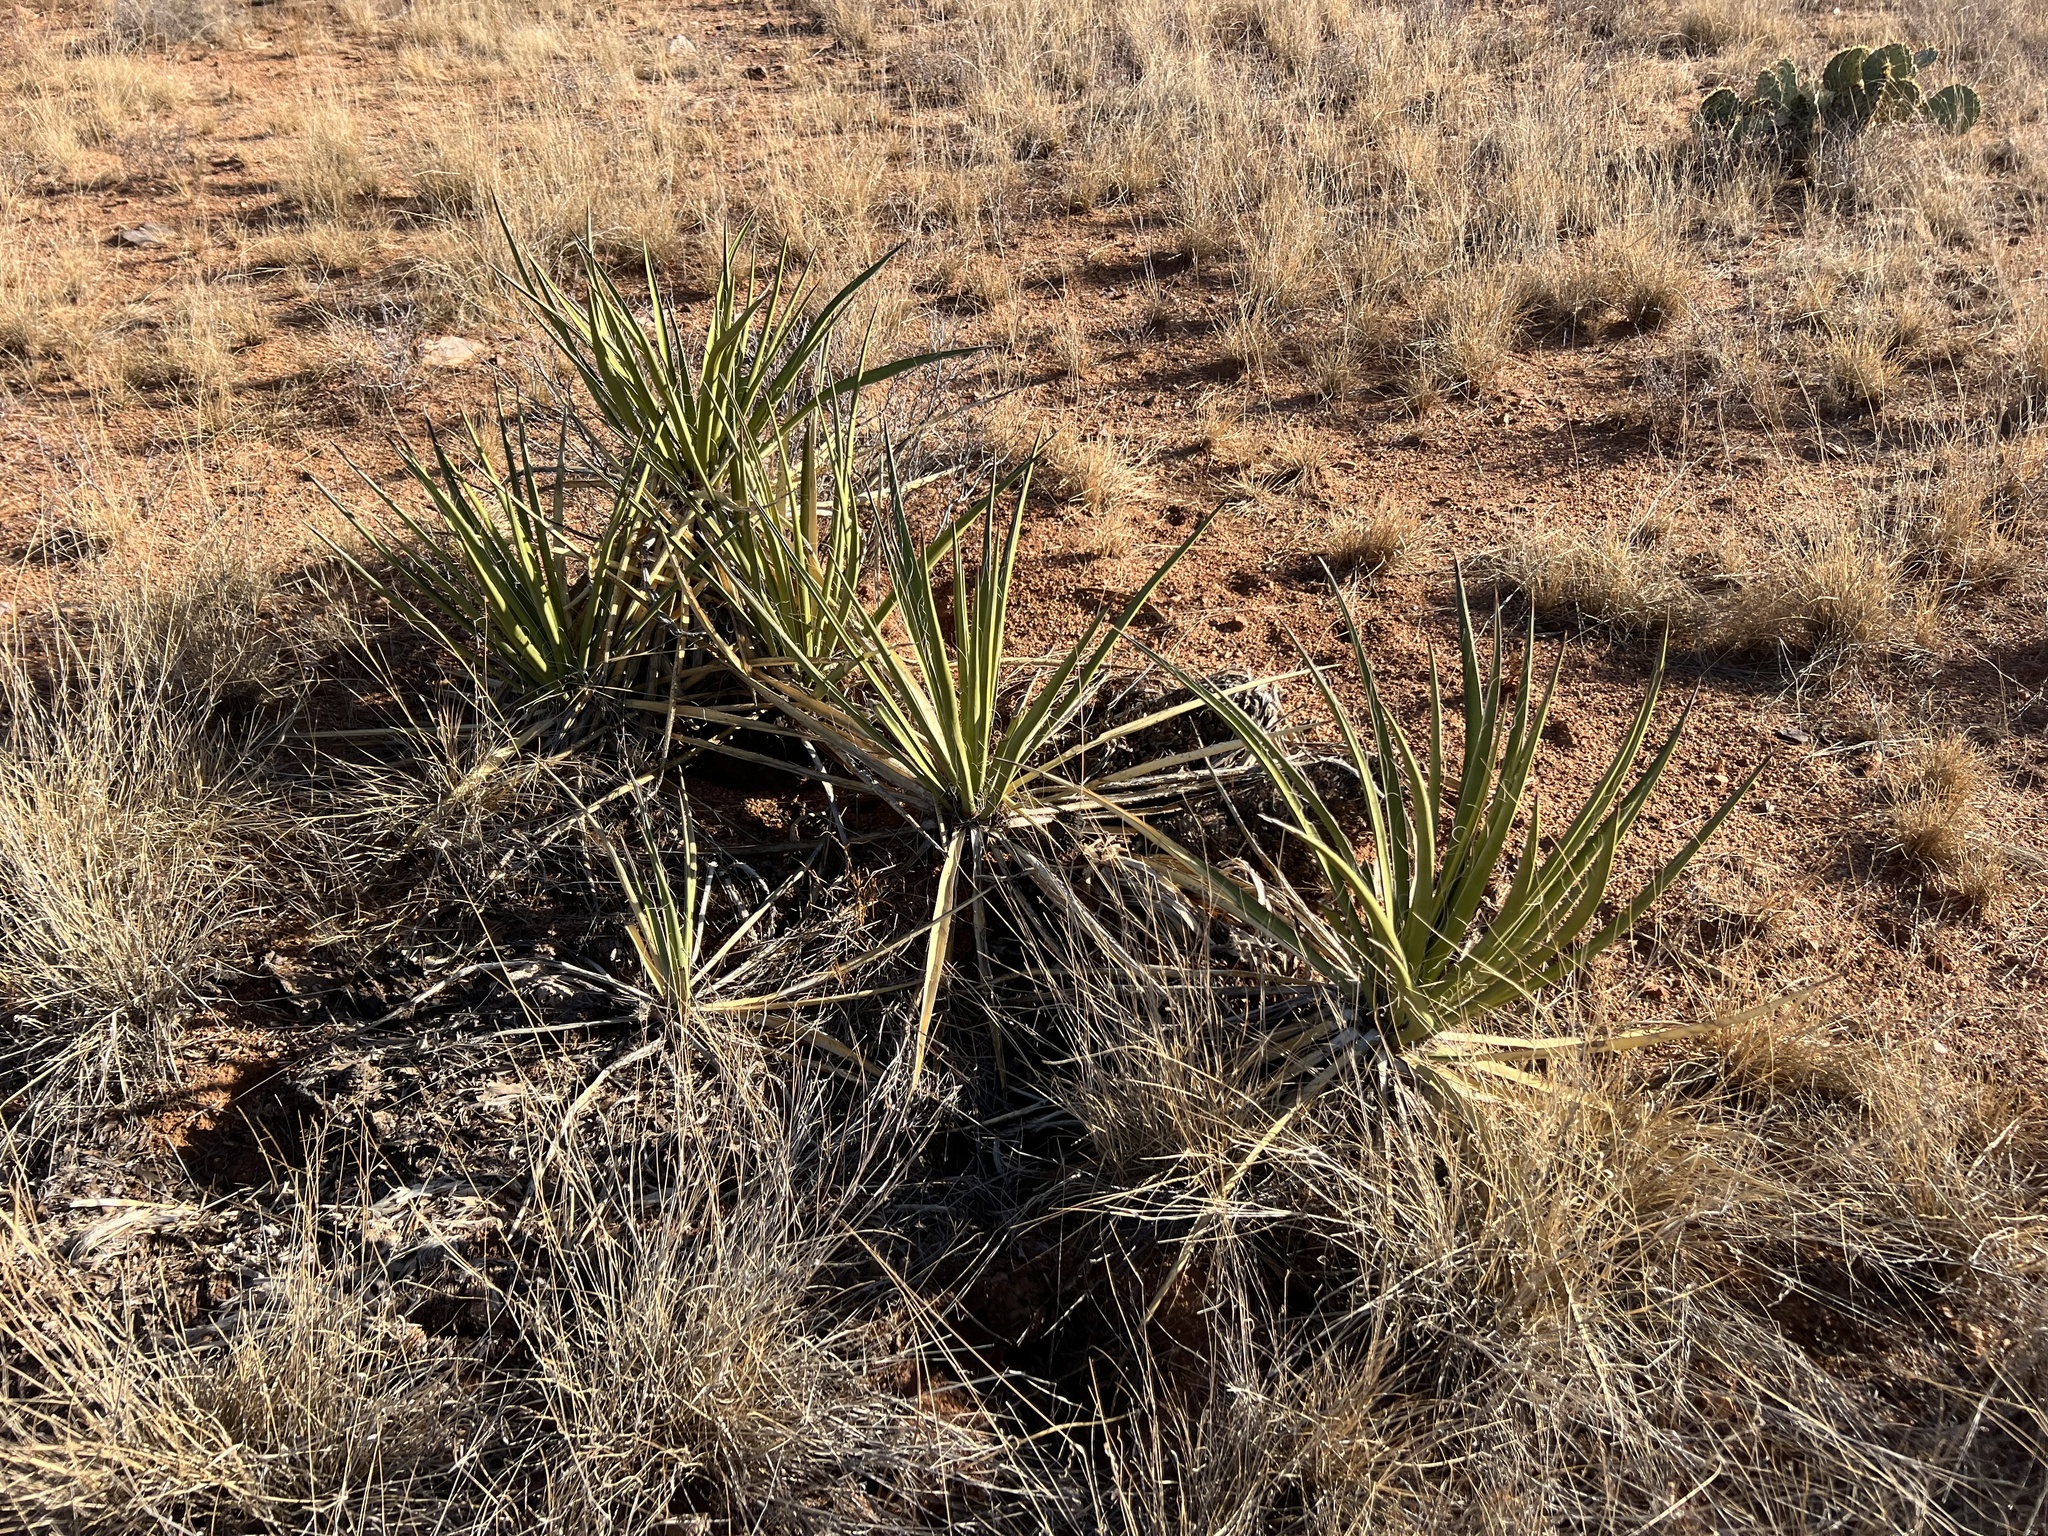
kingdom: Plantae
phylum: Tracheophyta
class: Liliopsida
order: Asparagales
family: Asparagaceae
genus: Yucca
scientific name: Yucca baccata
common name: Banana yucca
